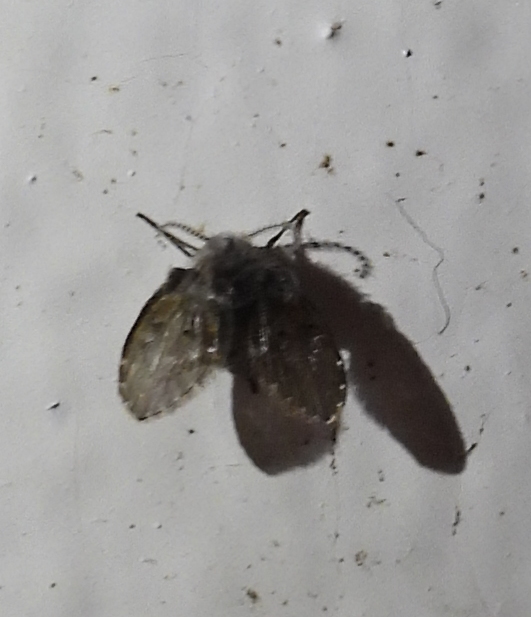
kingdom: Animalia
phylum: Arthropoda
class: Insecta
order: Diptera
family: Psychodidae
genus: Clogmia
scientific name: Clogmia albipunctatus
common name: White-spotted moth fly
